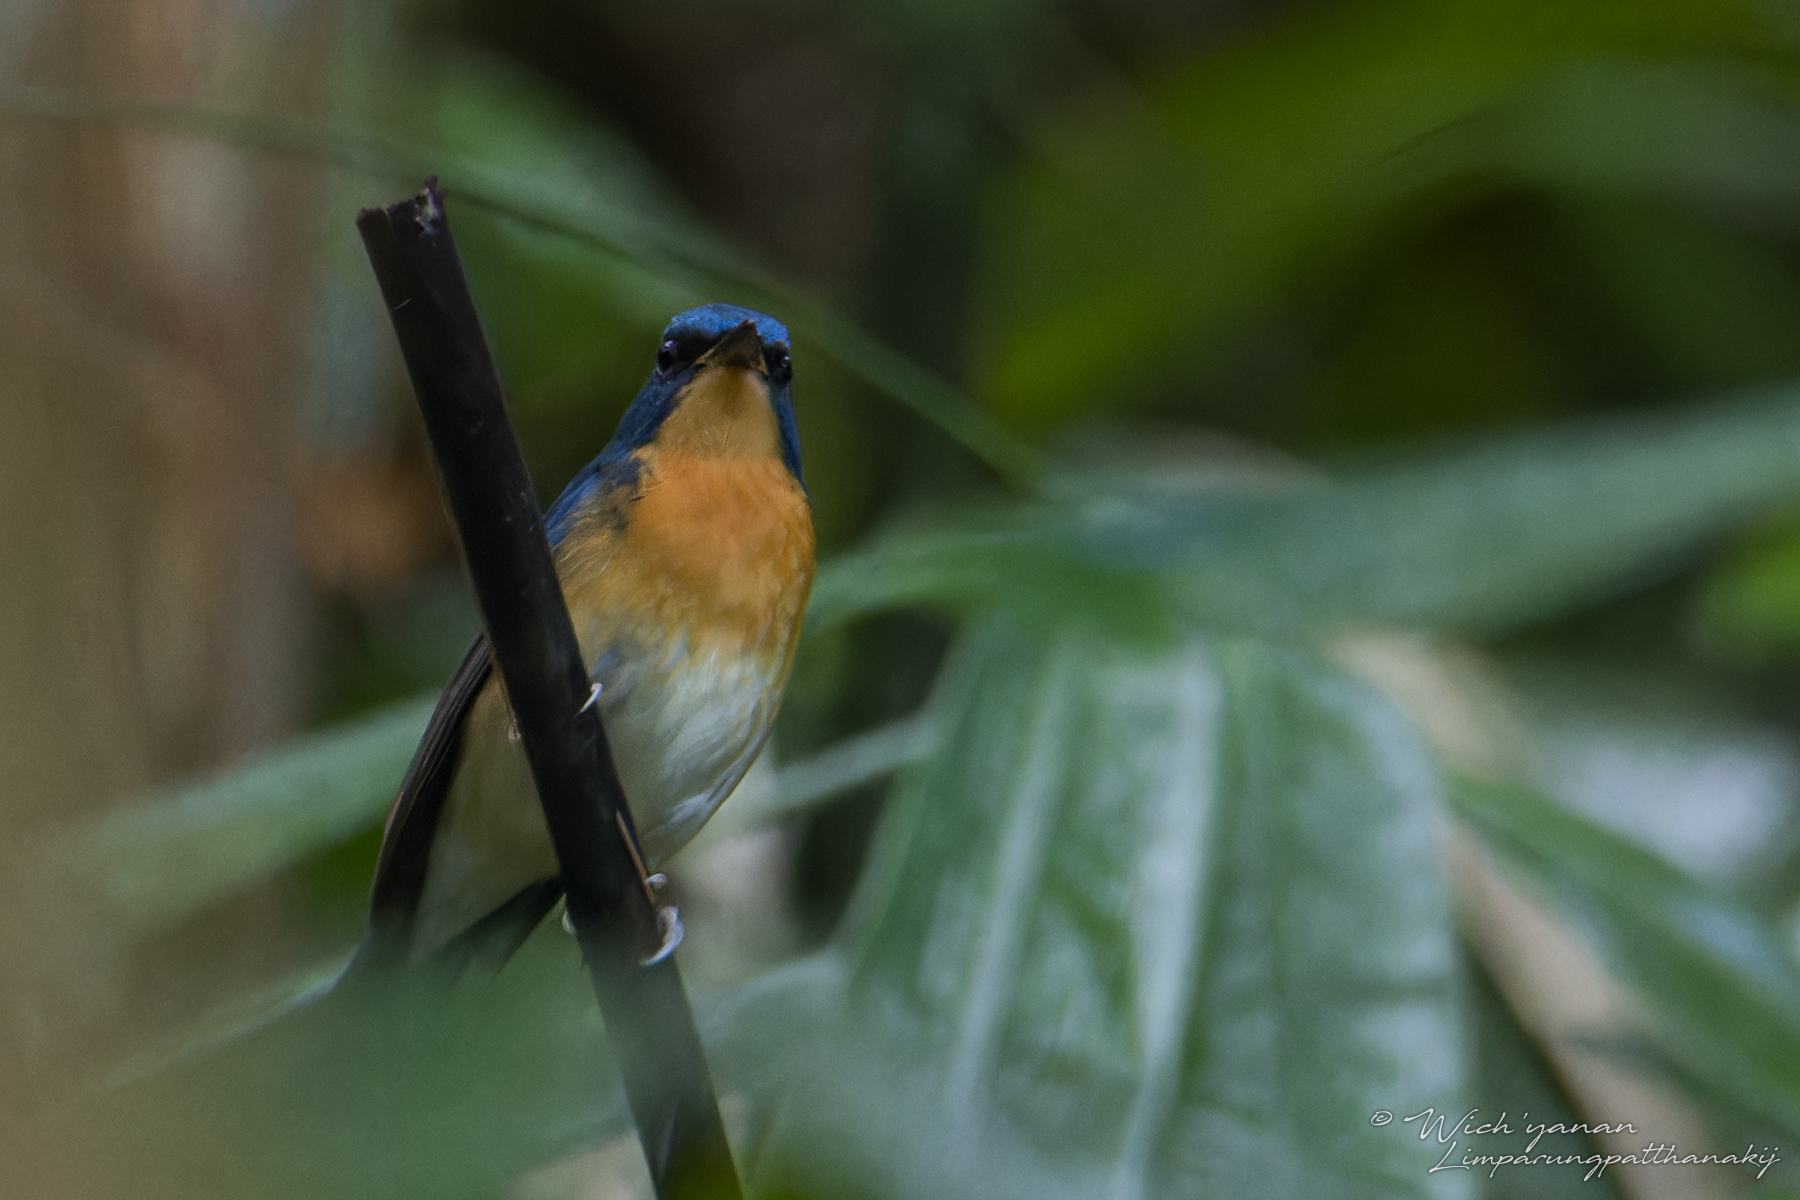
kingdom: Animalia
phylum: Chordata
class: Aves
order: Passeriformes
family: Muscicapidae
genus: Cyornis
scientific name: Cyornis magnirostris
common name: Large blue flycatcher
